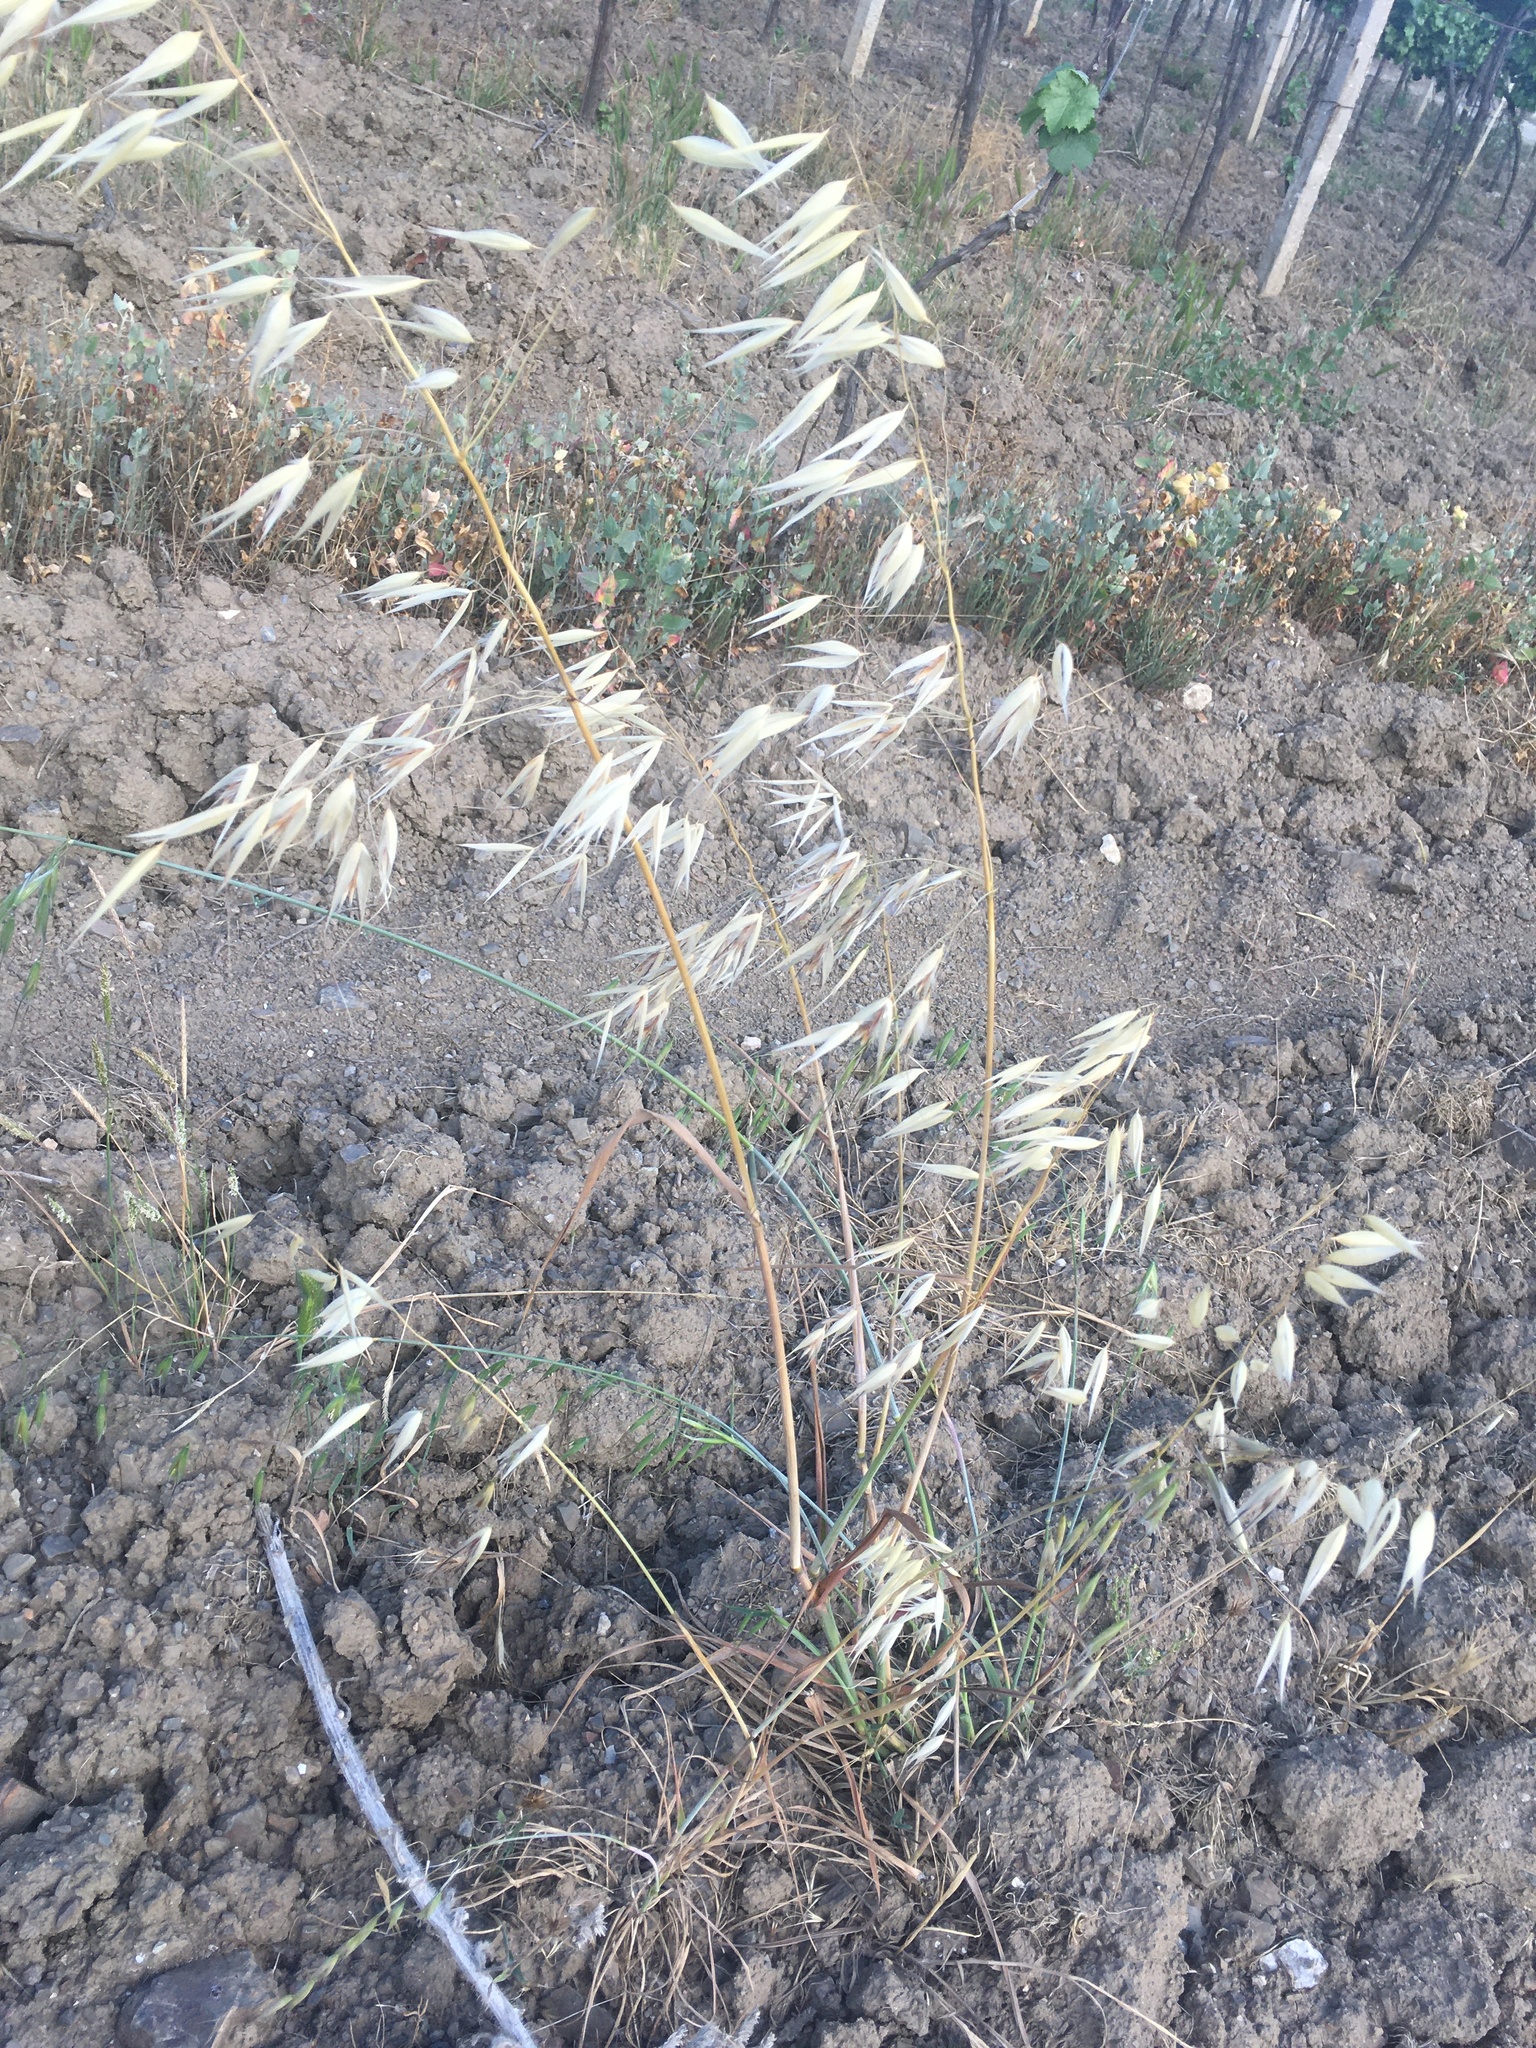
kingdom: Plantae
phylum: Tracheophyta
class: Liliopsida
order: Poales
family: Poaceae
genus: Avena
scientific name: Avena fatua
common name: Wild oat
